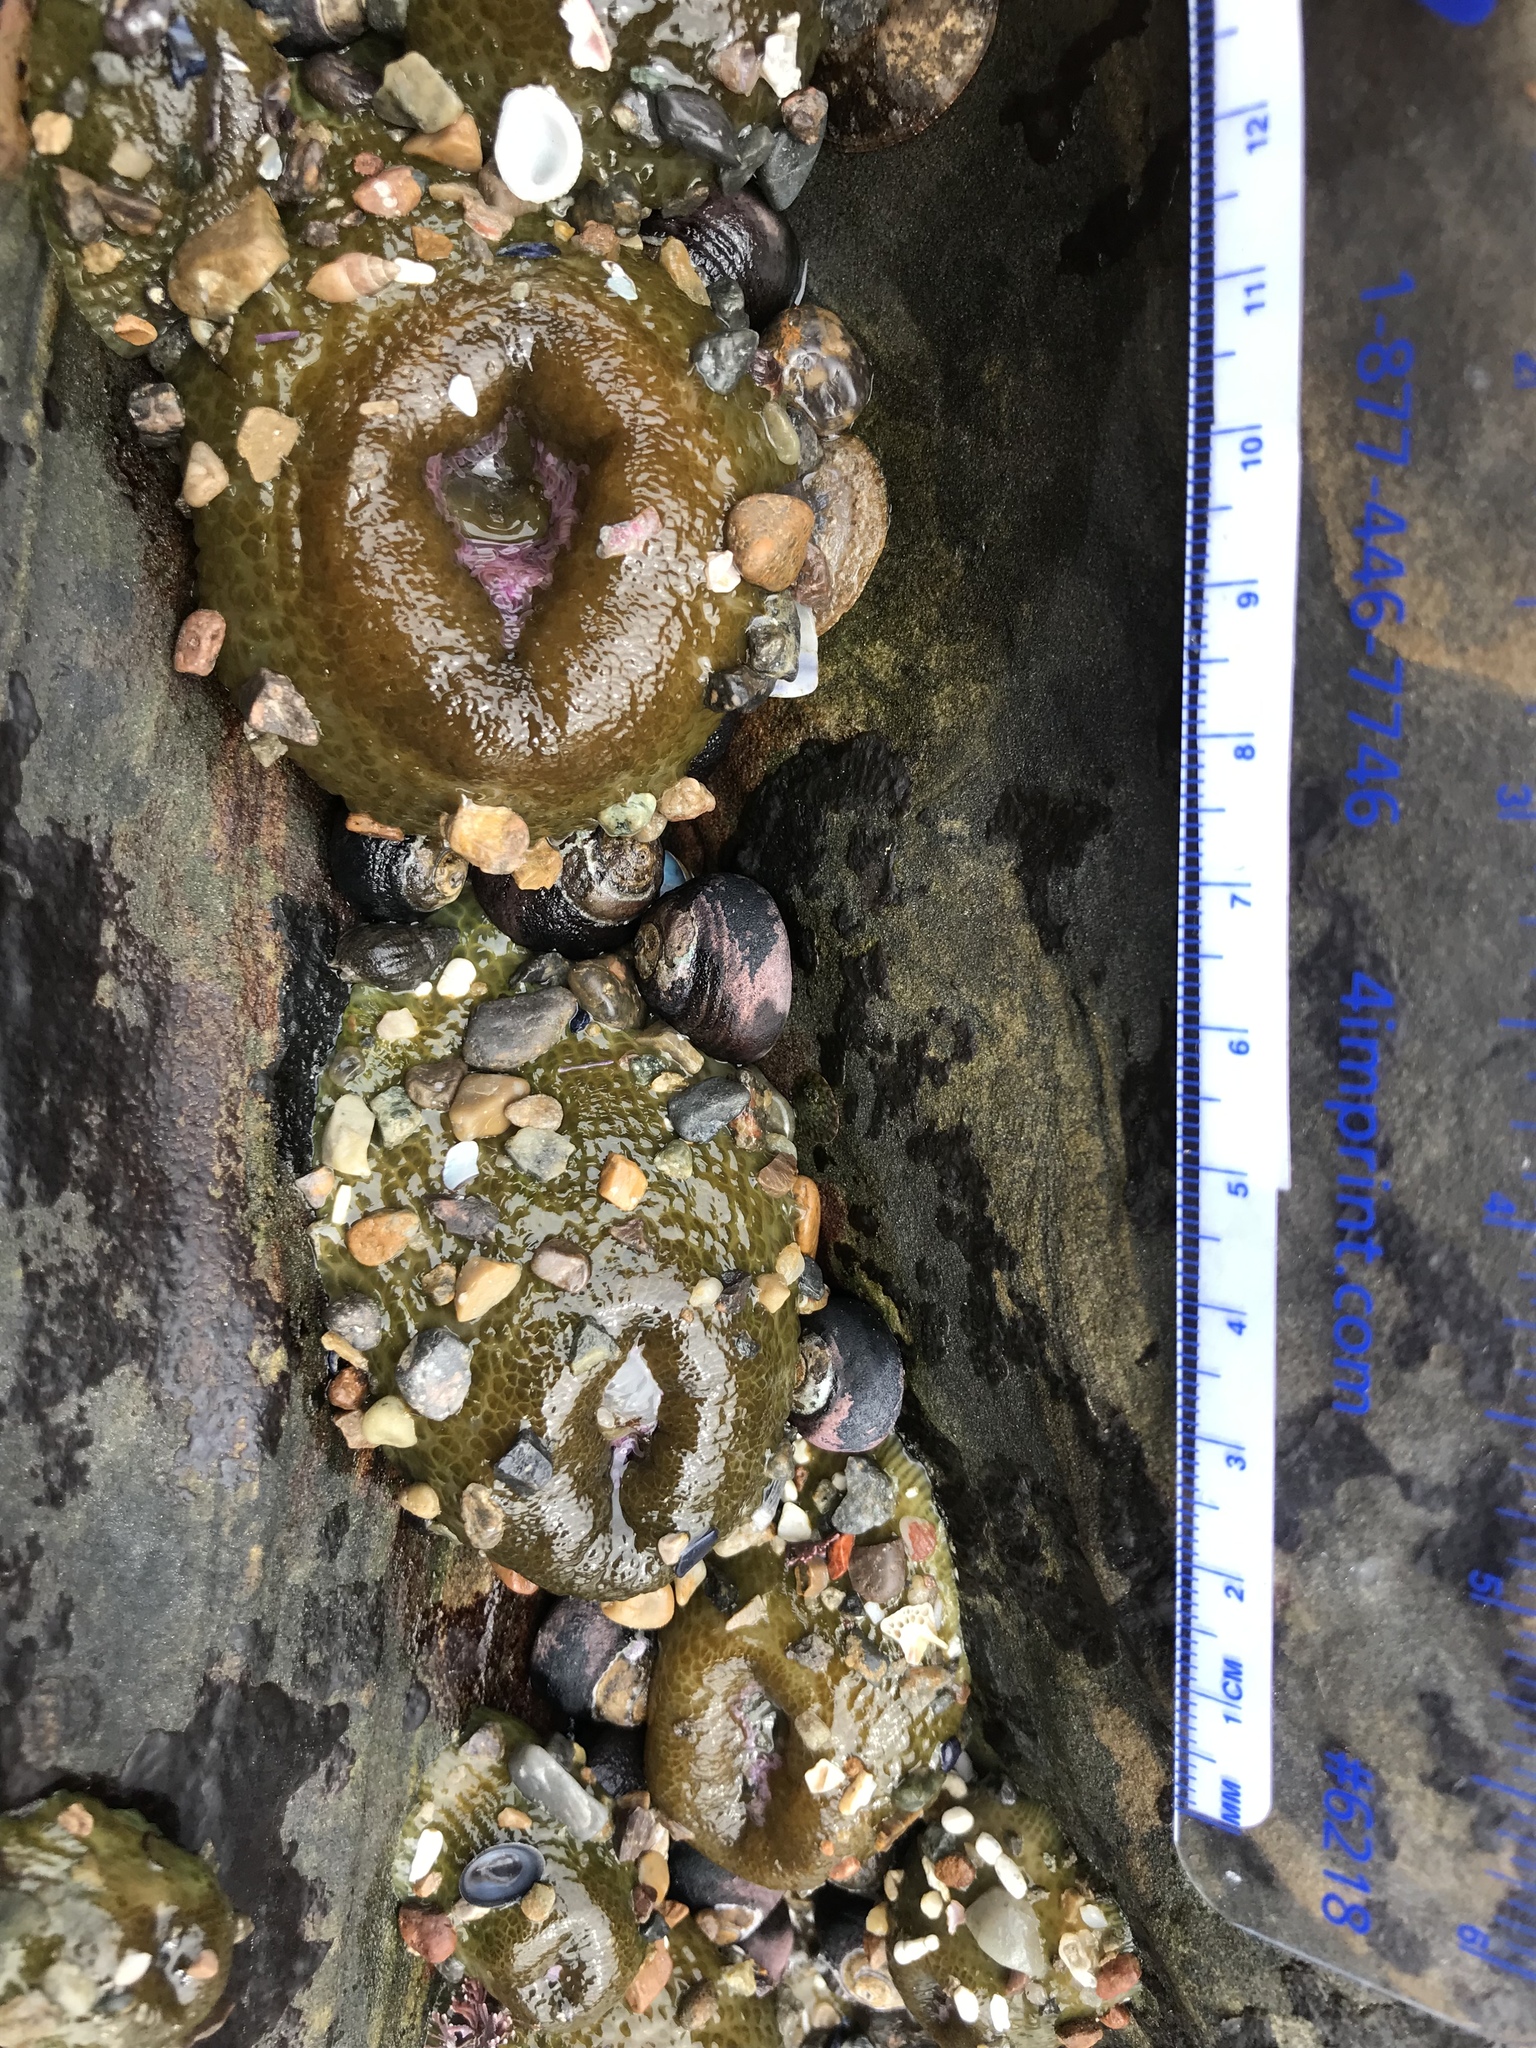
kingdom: Animalia
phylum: Cnidaria
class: Anthozoa
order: Actiniaria
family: Actiniidae
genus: Anthopleura
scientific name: Anthopleura elegantissima
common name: Clonal anemone
